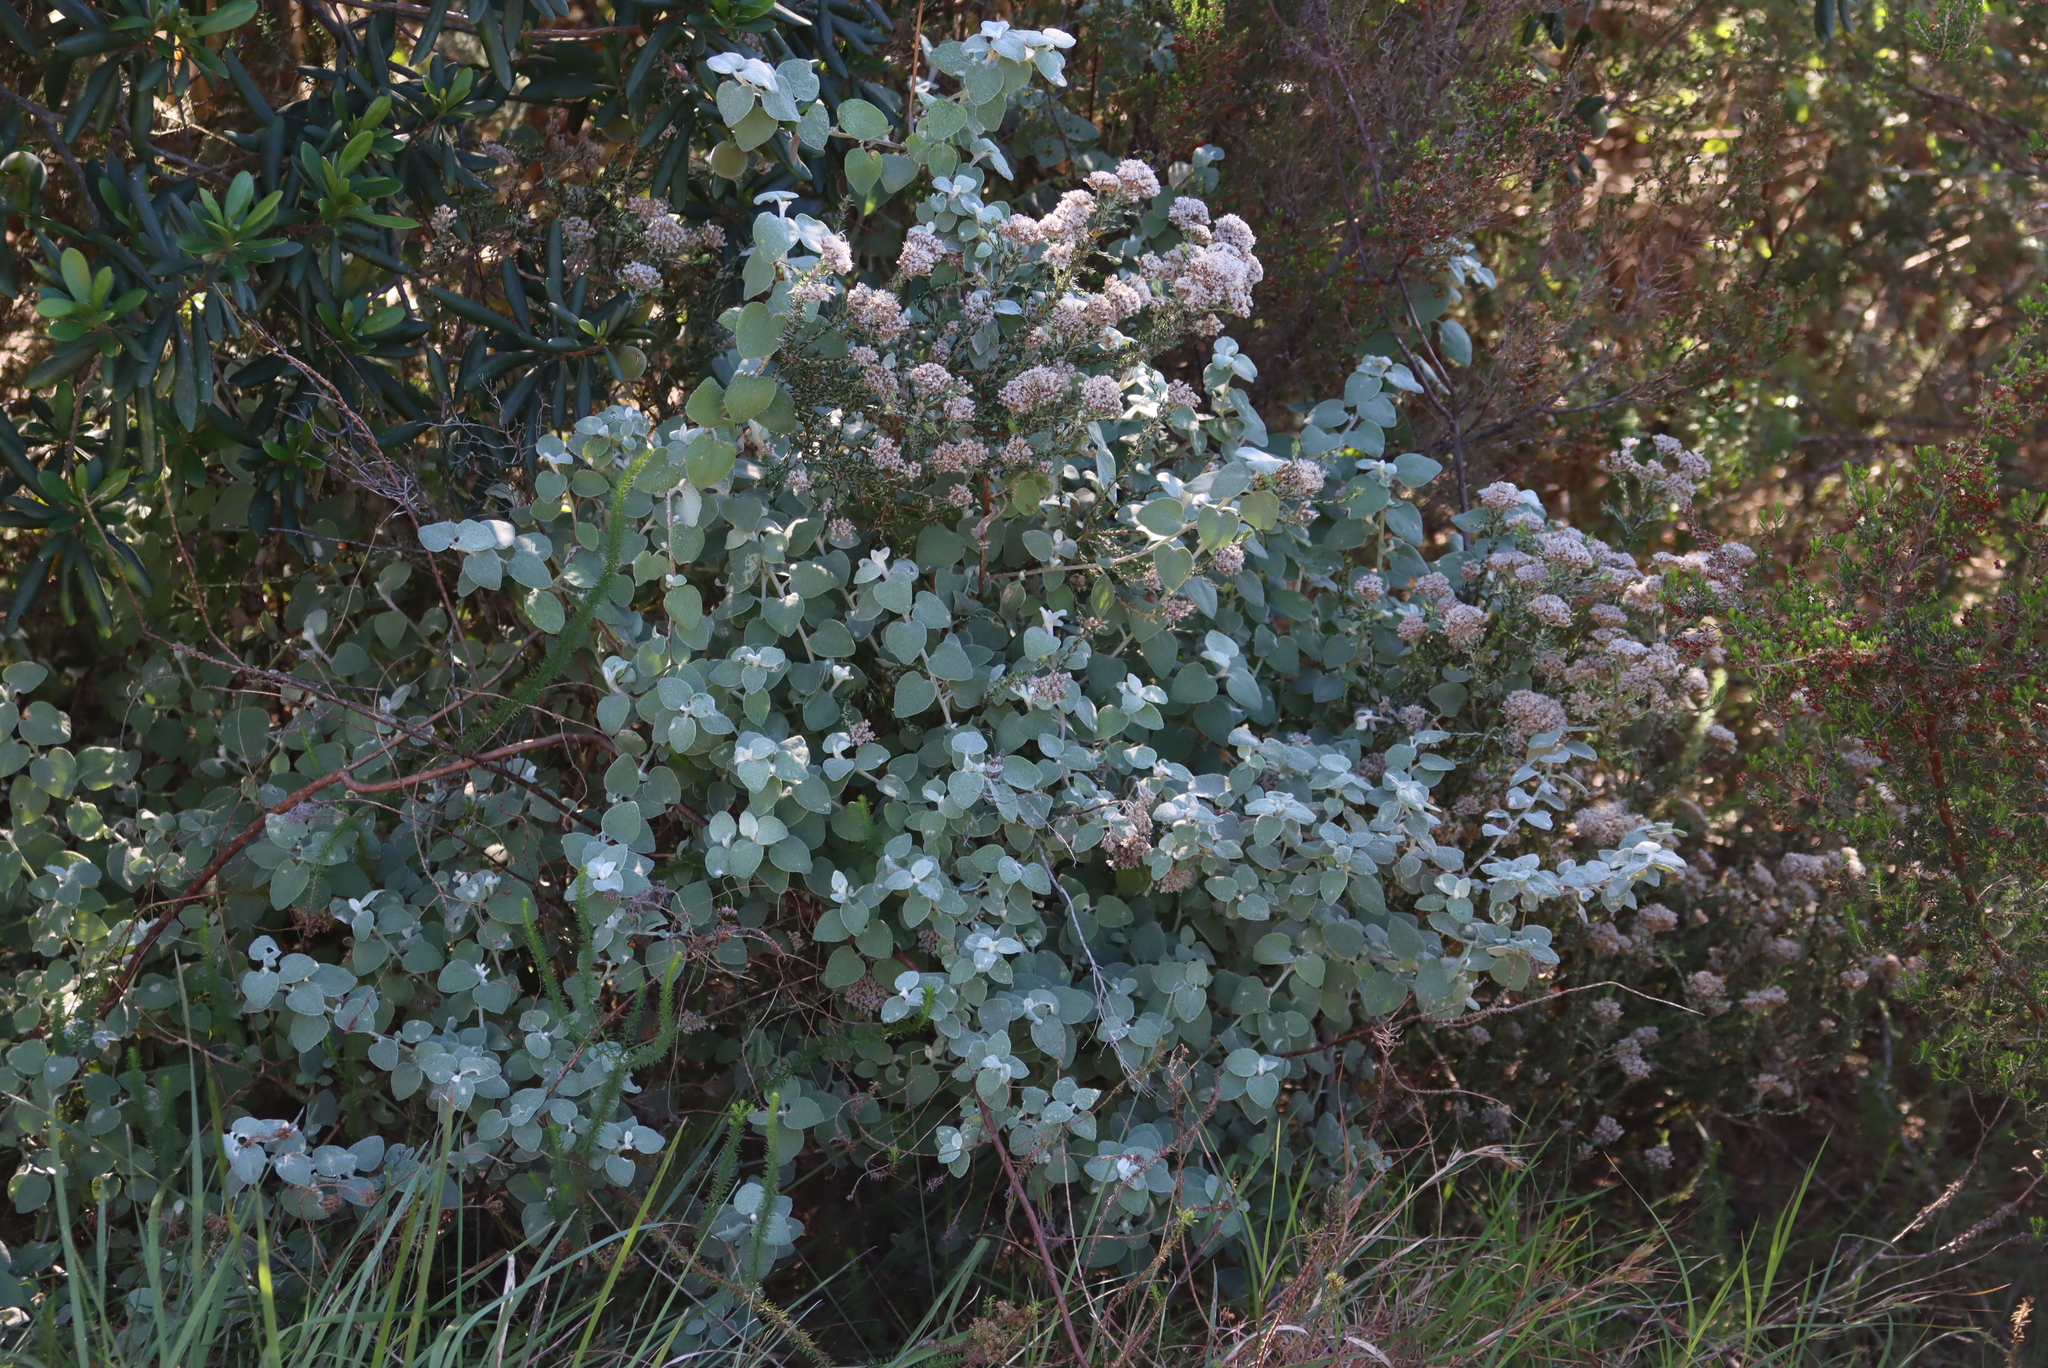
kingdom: Plantae
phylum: Tracheophyta
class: Magnoliopsida
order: Asterales
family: Asteraceae
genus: Helichrysum
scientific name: Helichrysum petiolare
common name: Licorice-plant
